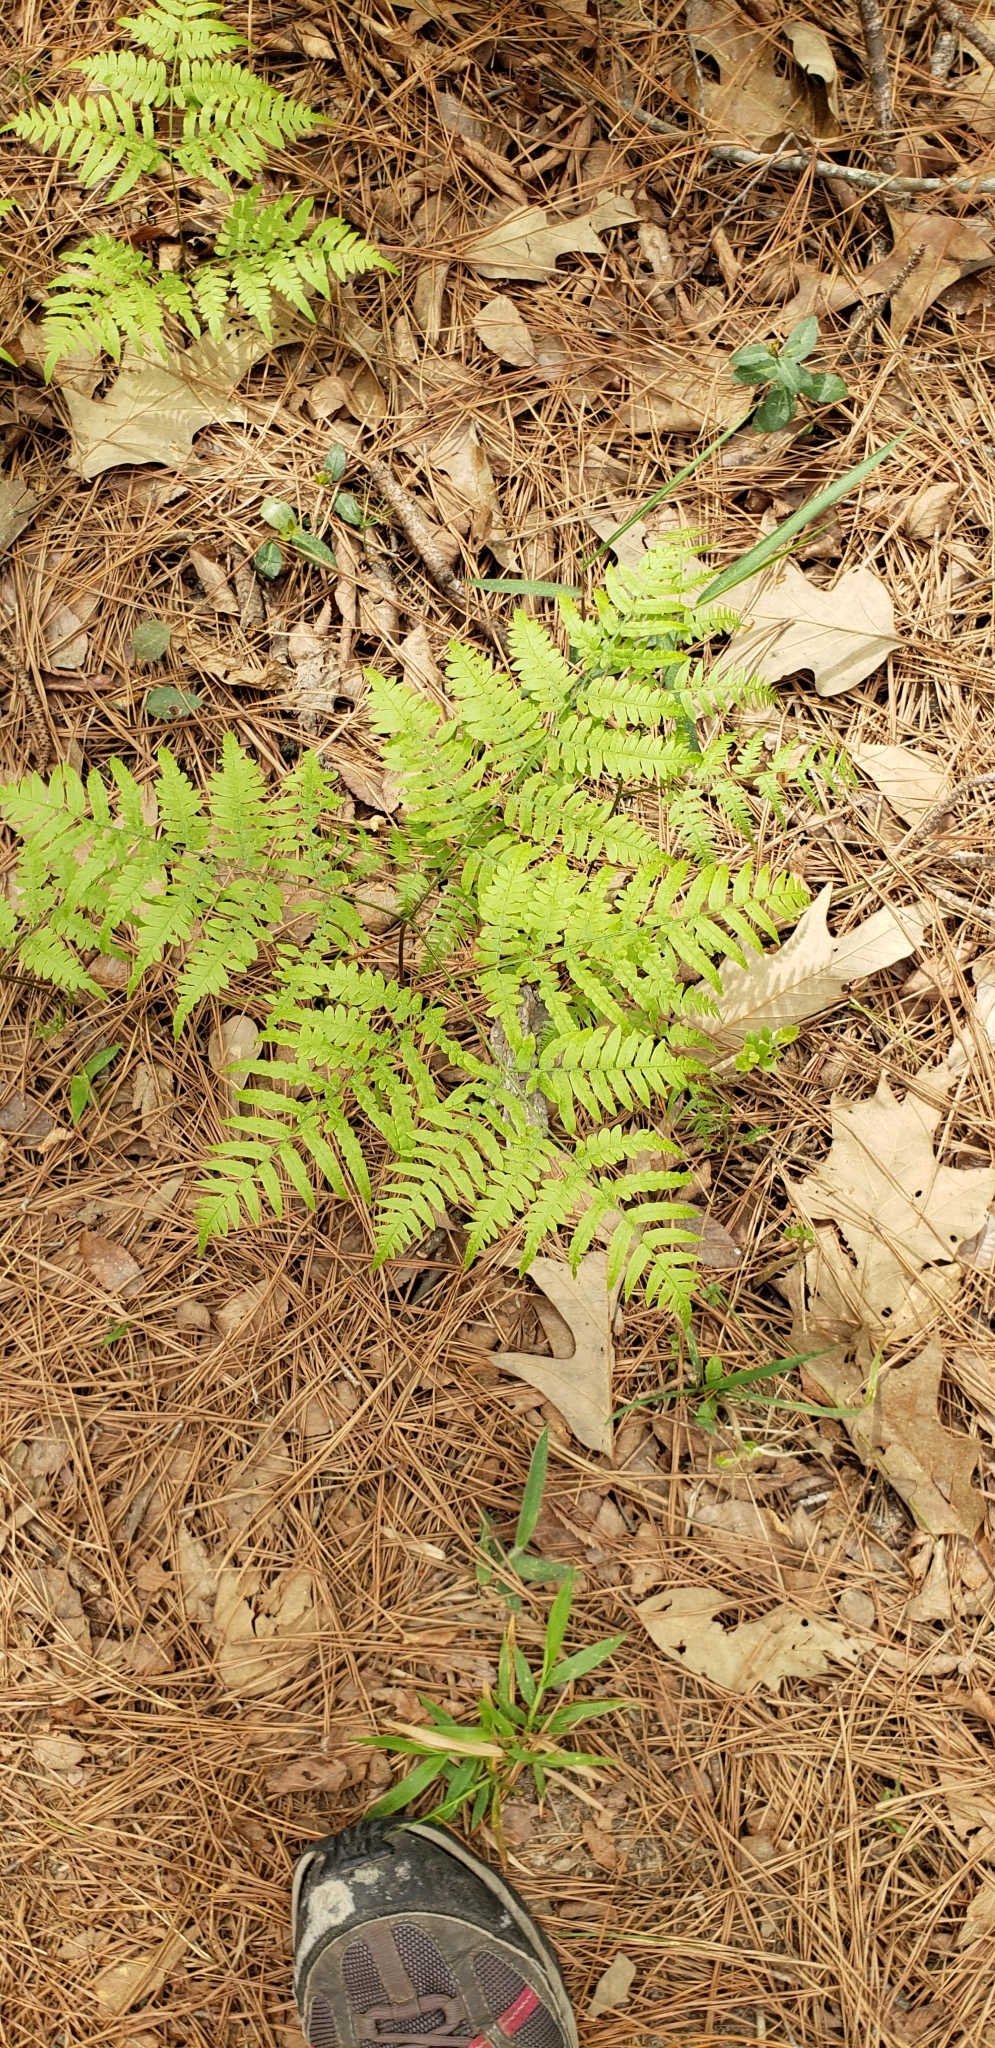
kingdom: Plantae
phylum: Tracheophyta
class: Polypodiopsida
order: Polypodiales
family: Dennstaedtiaceae
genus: Pteridium
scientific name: Pteridium aquilinum
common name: Bracken
